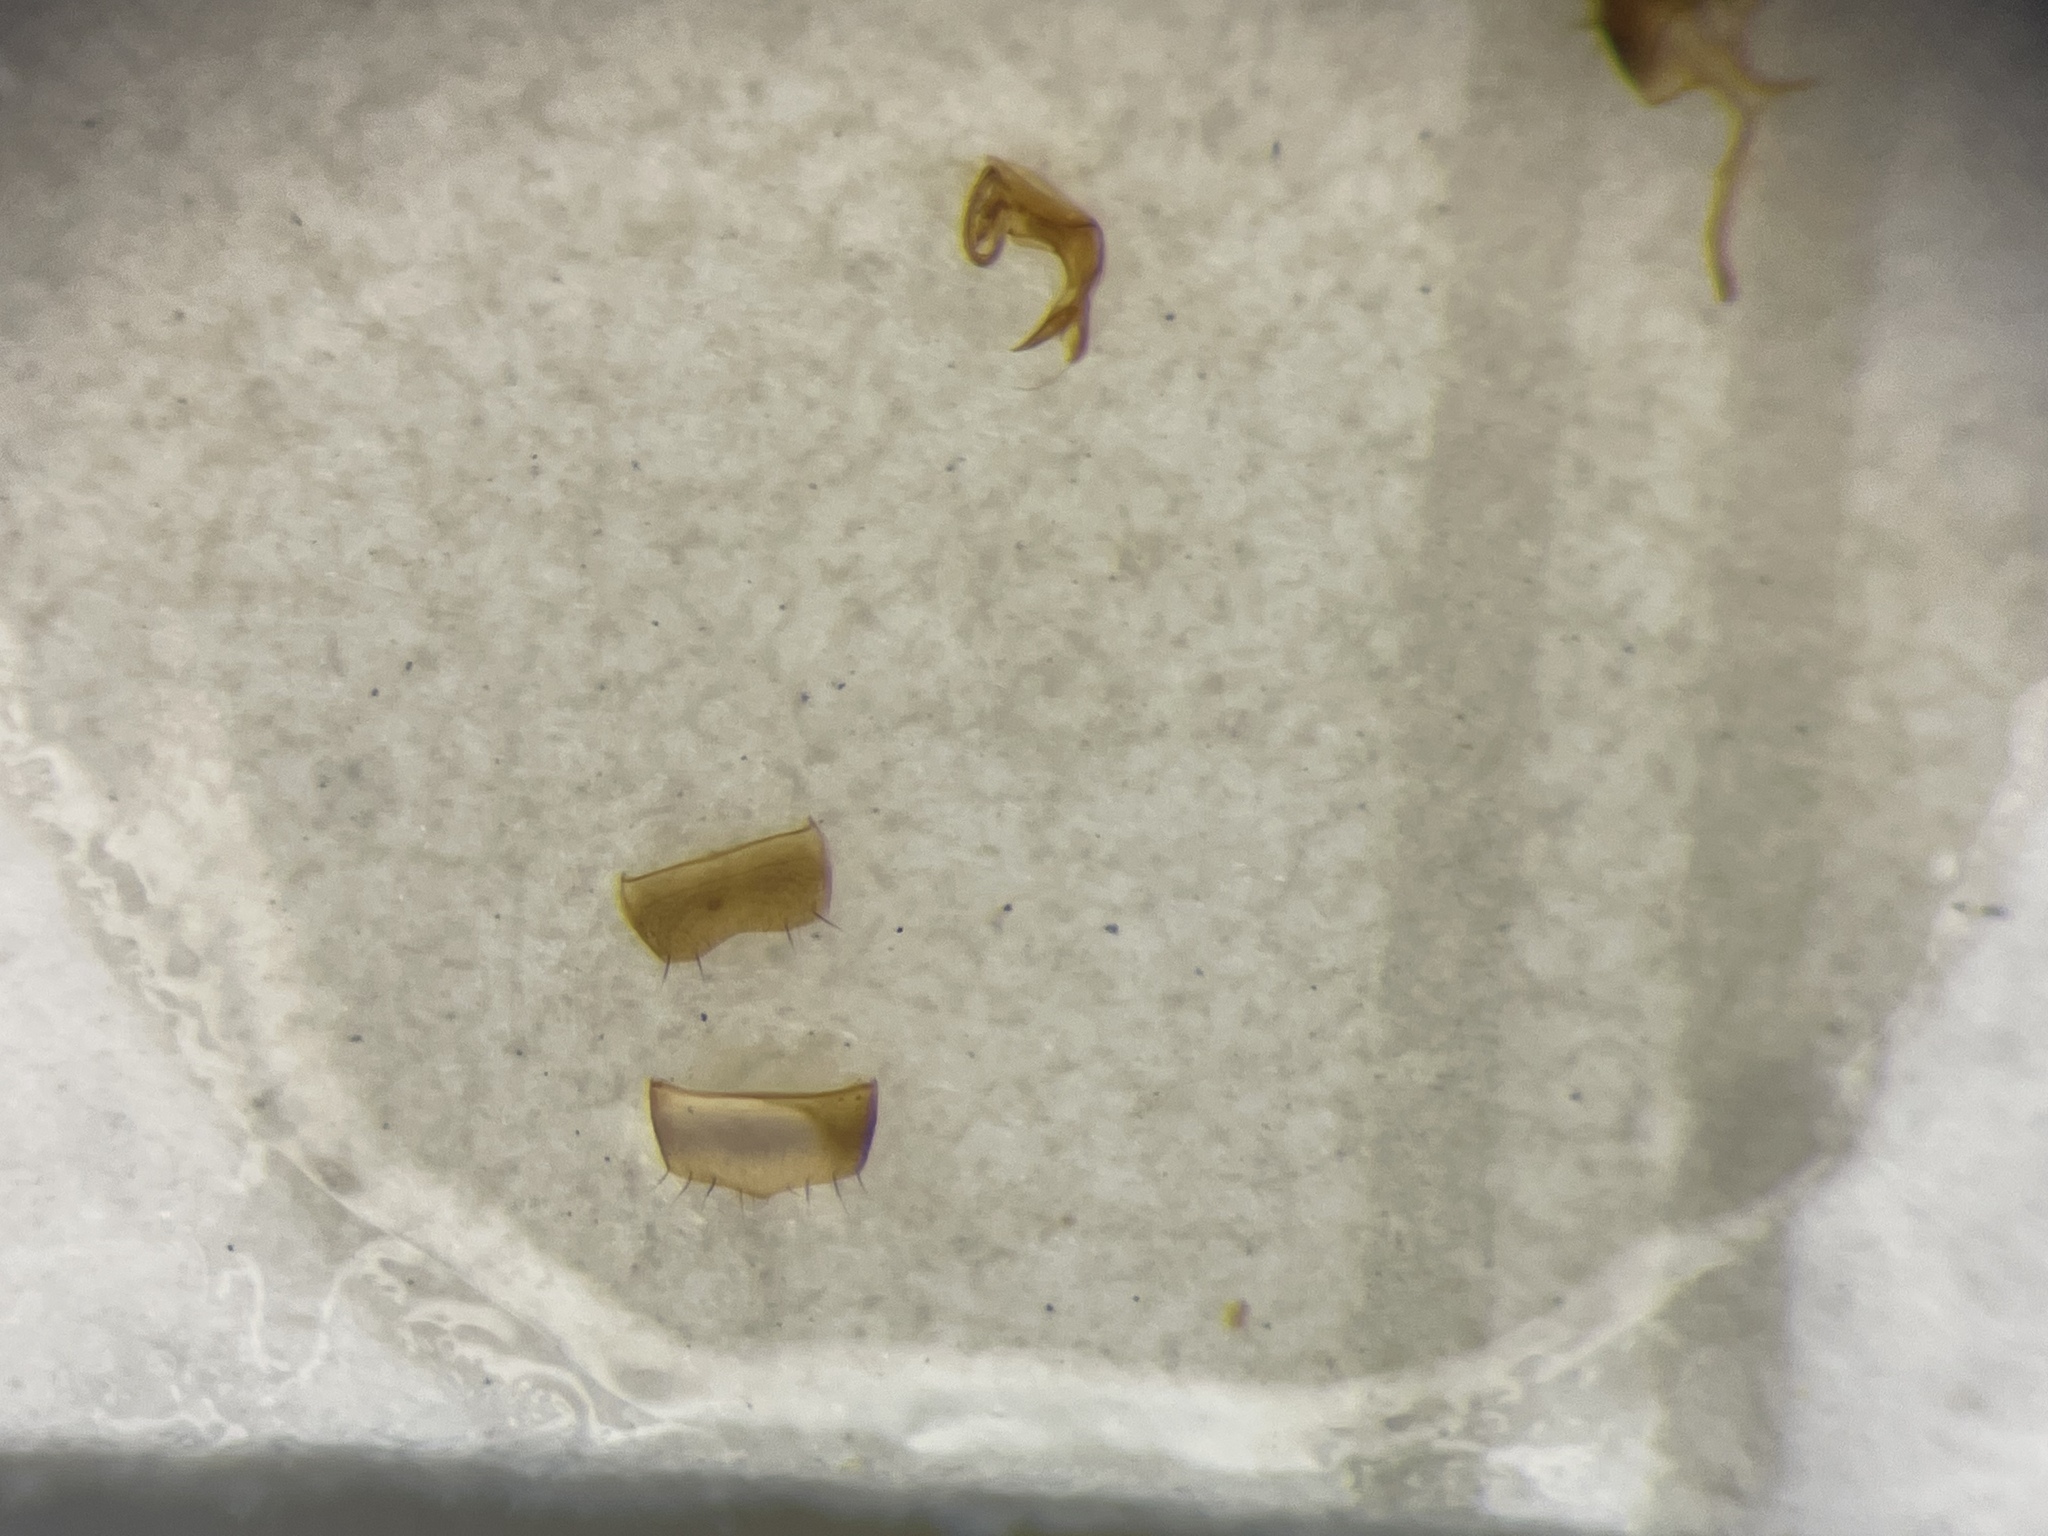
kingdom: Animalia
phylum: Arthropoda
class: Insecta
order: Coleoptera
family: Staphylinidae
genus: Autalia
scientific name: Autalia impressa
